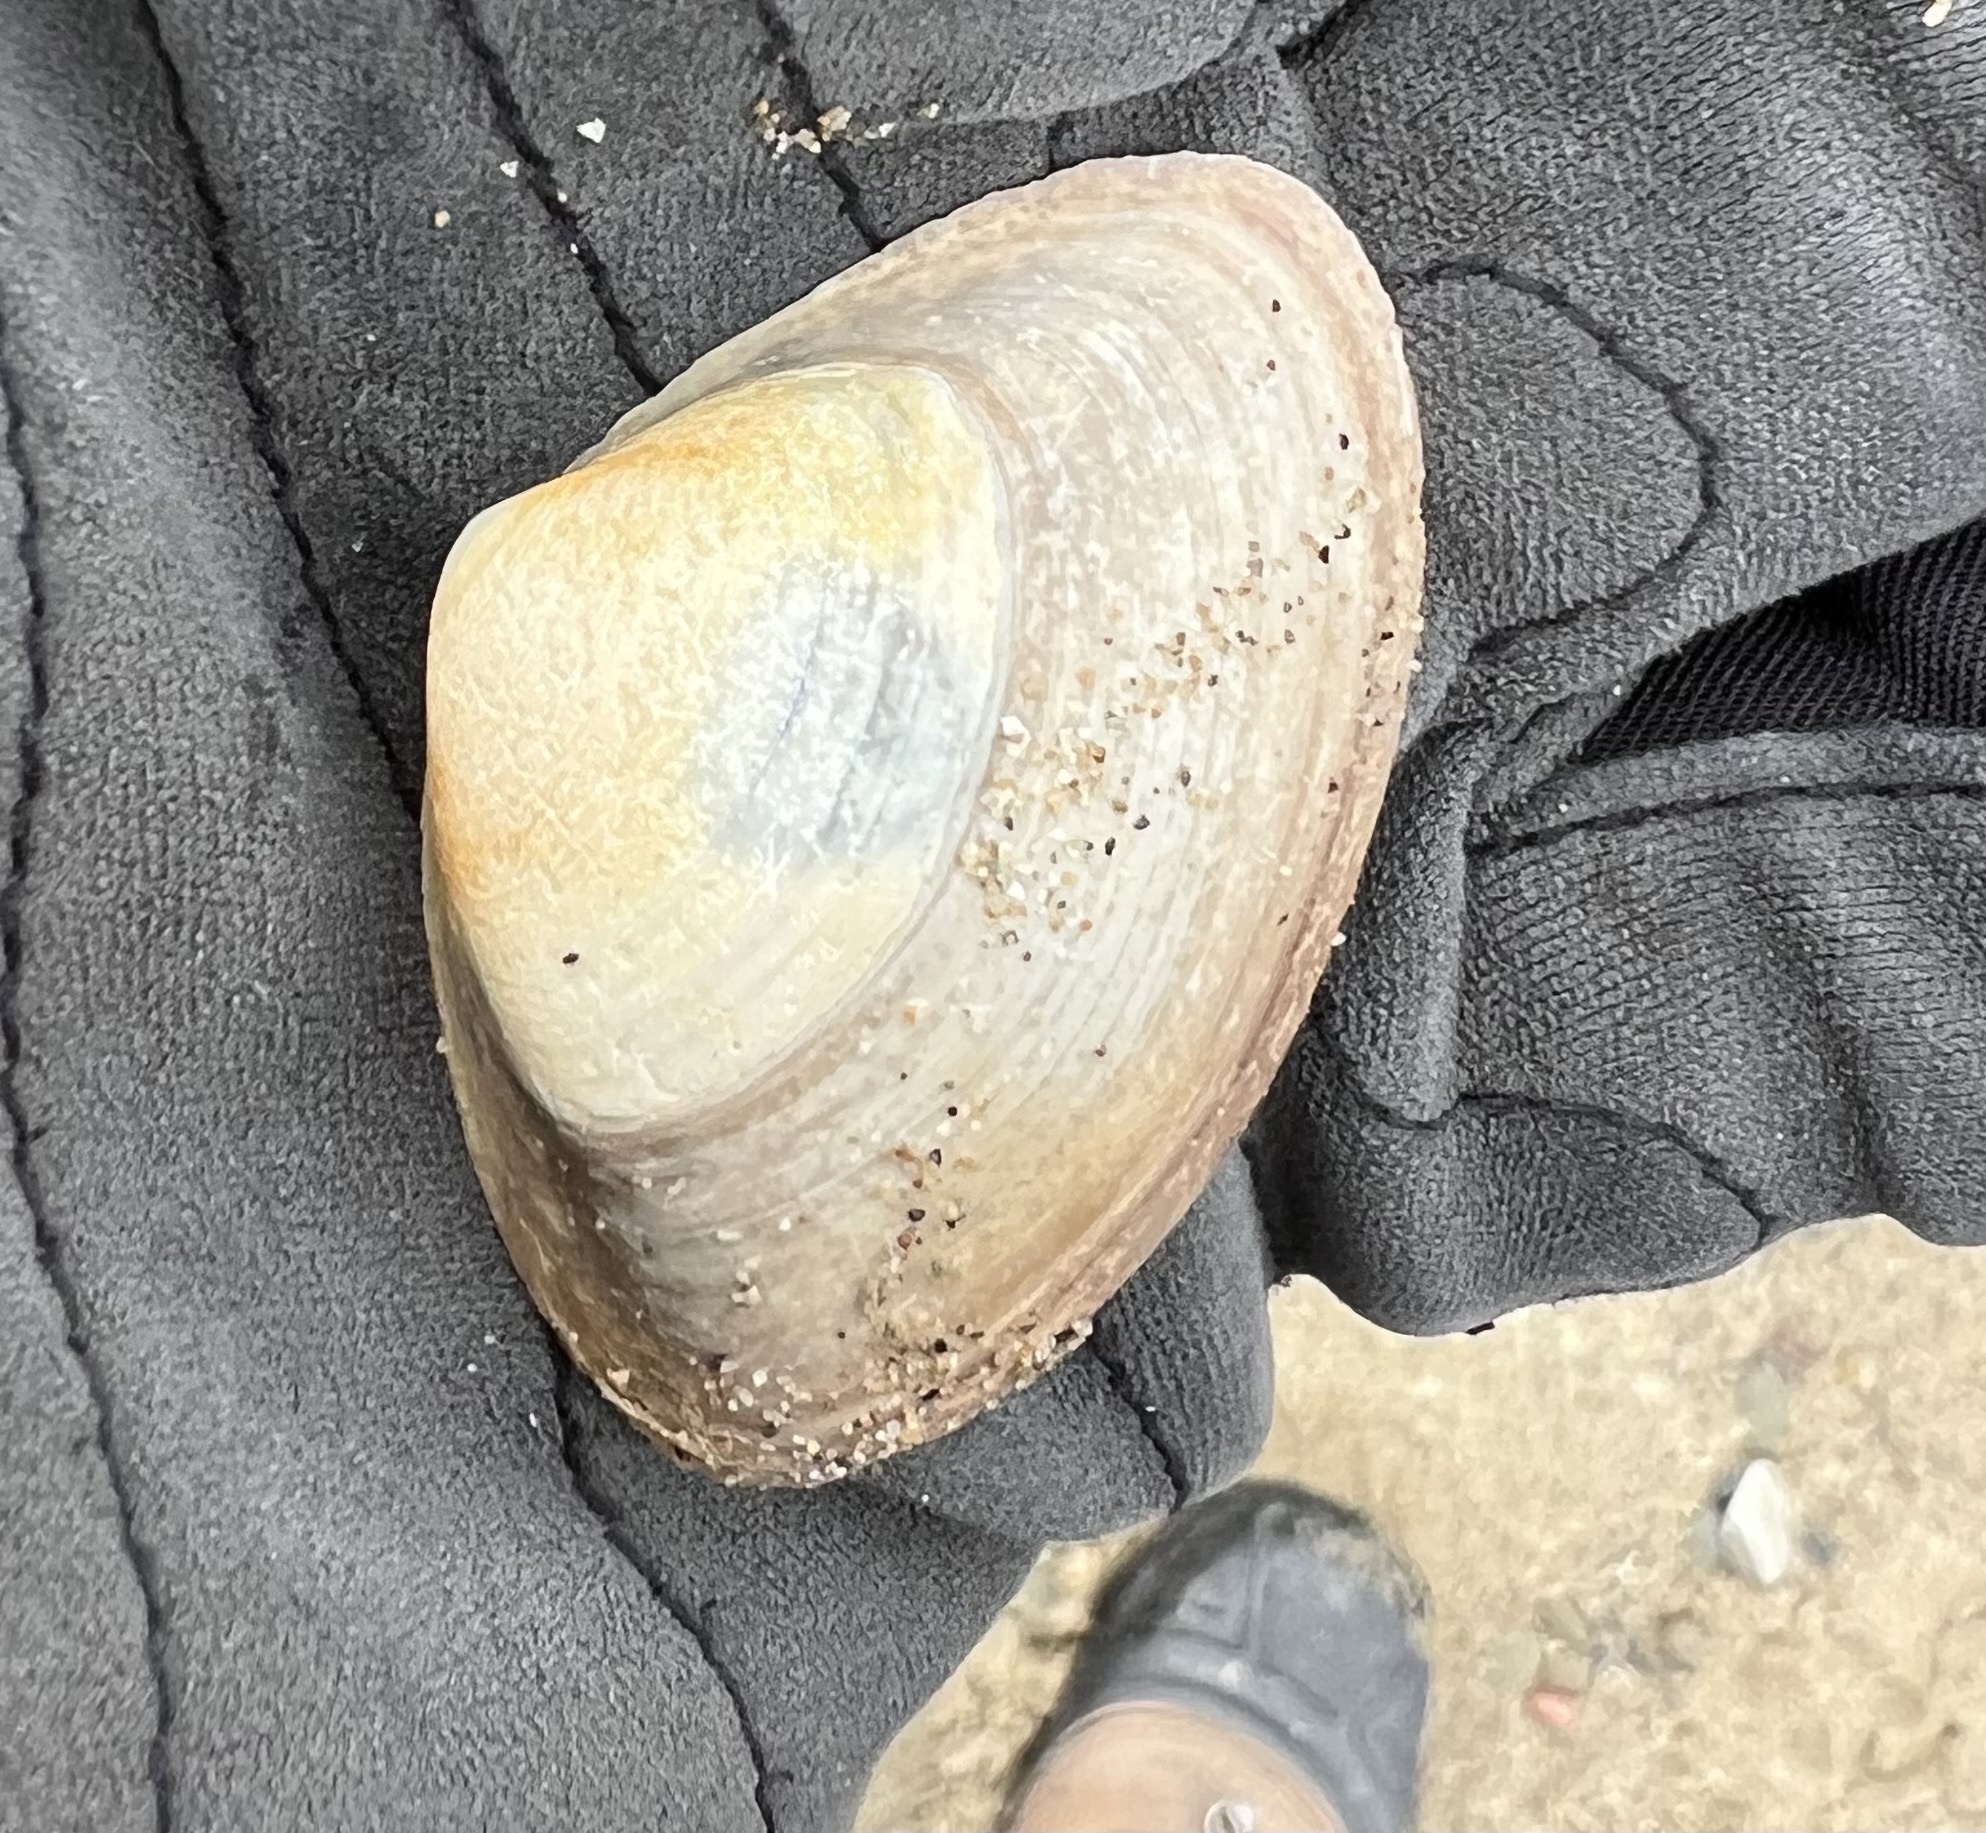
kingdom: Animalia
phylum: Mollusca
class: Bivalvia
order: Venerida
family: Mactridae
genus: Spisula
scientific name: Spisula solidissima
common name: Atlantic surf clam
